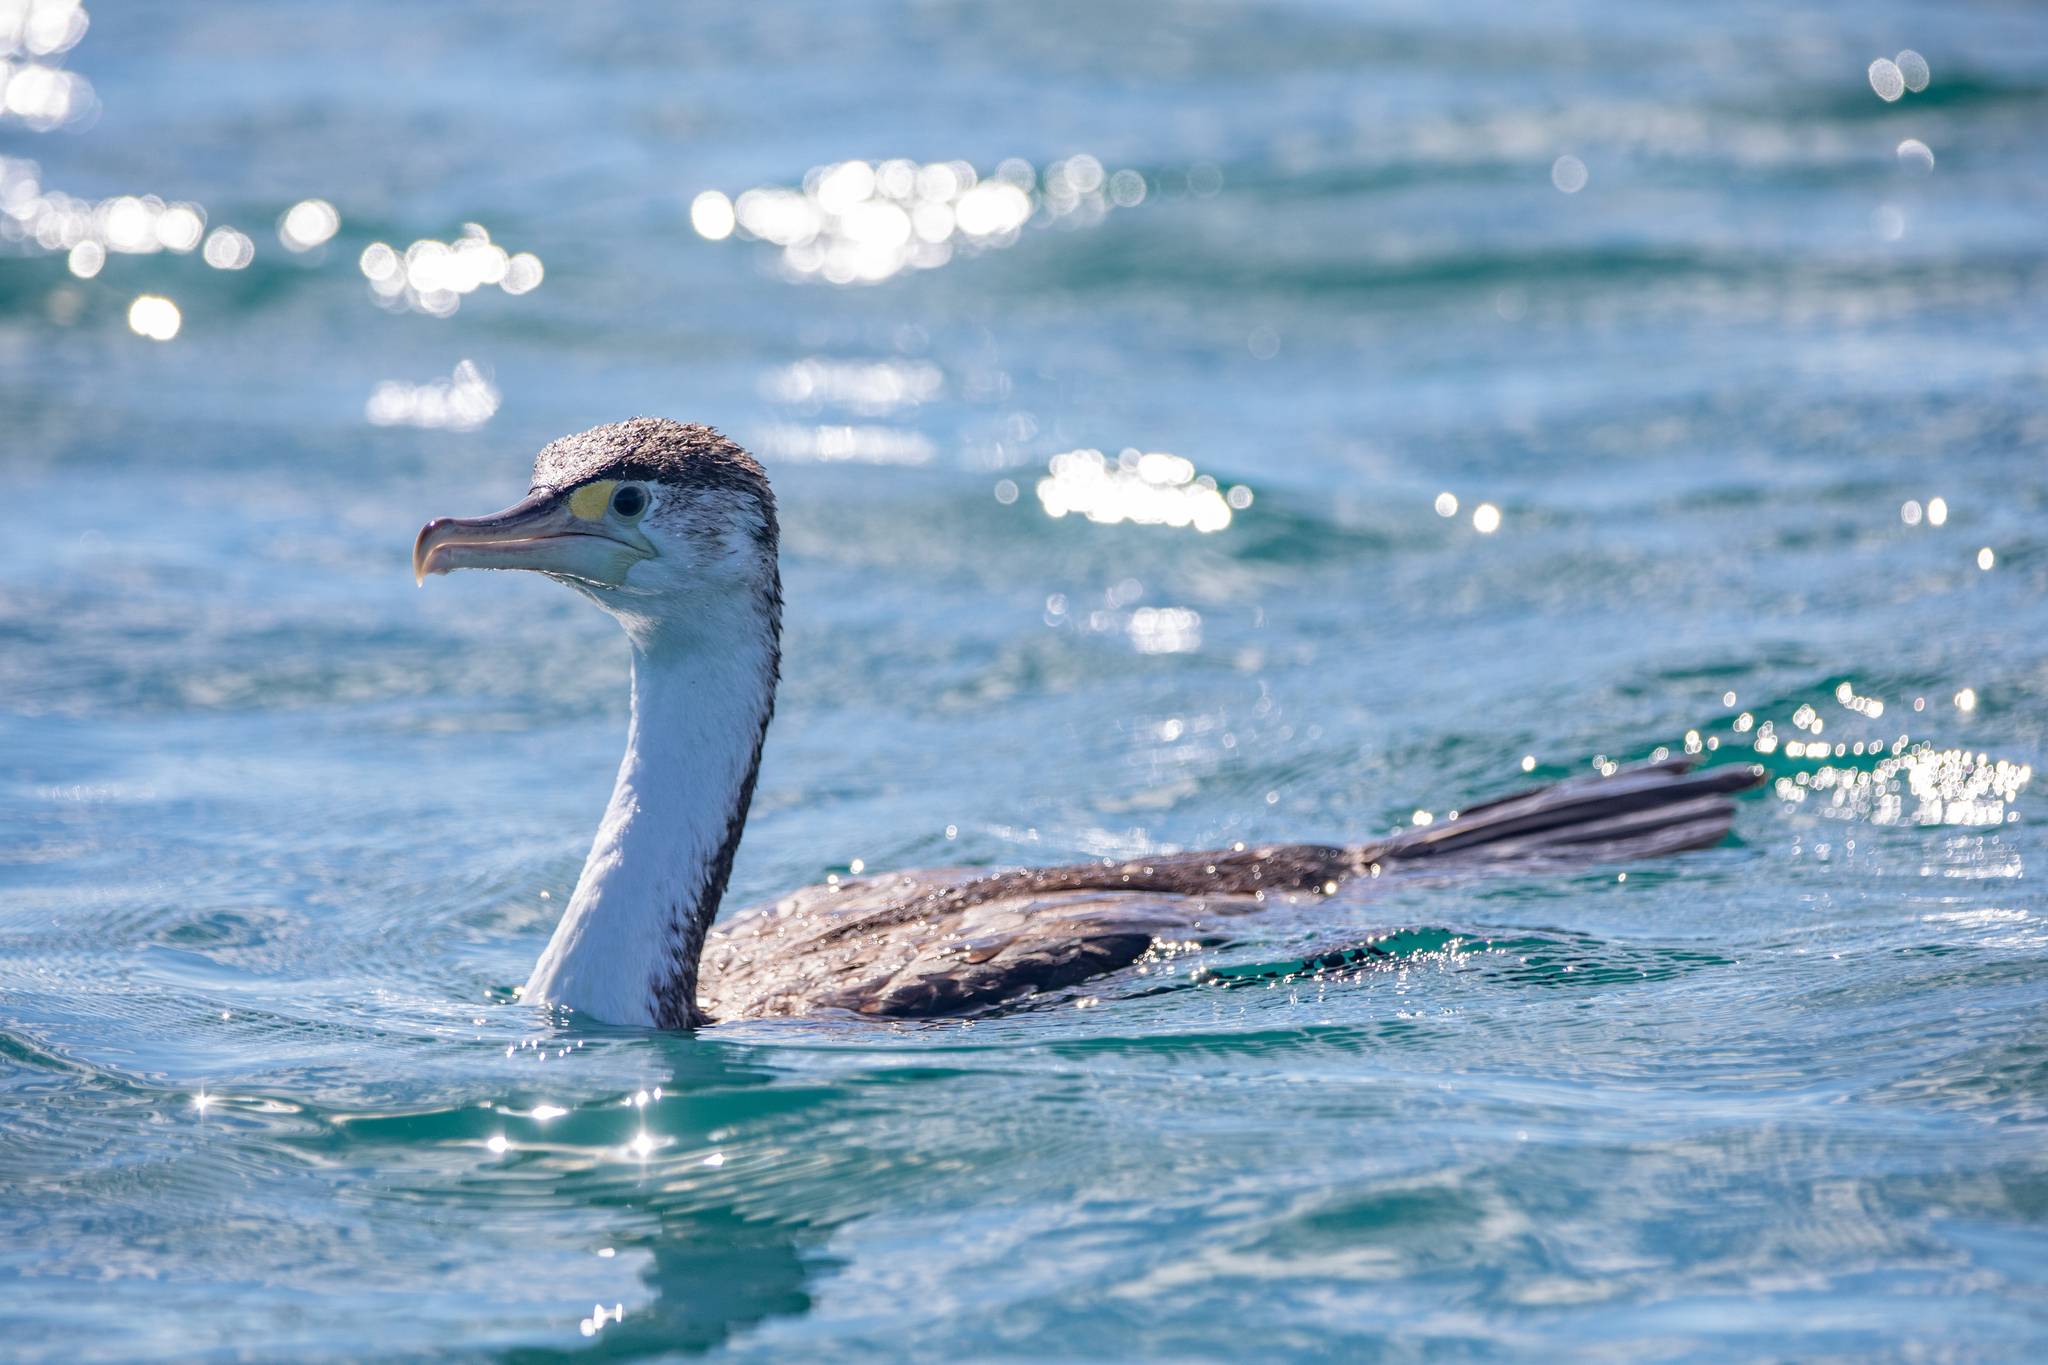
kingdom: Animalia
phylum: Chordata
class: Aves
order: Suliformes
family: Phalacrocoracidae
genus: Phalacrocorax
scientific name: Phalacrocorax varius
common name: Pied cormorant
